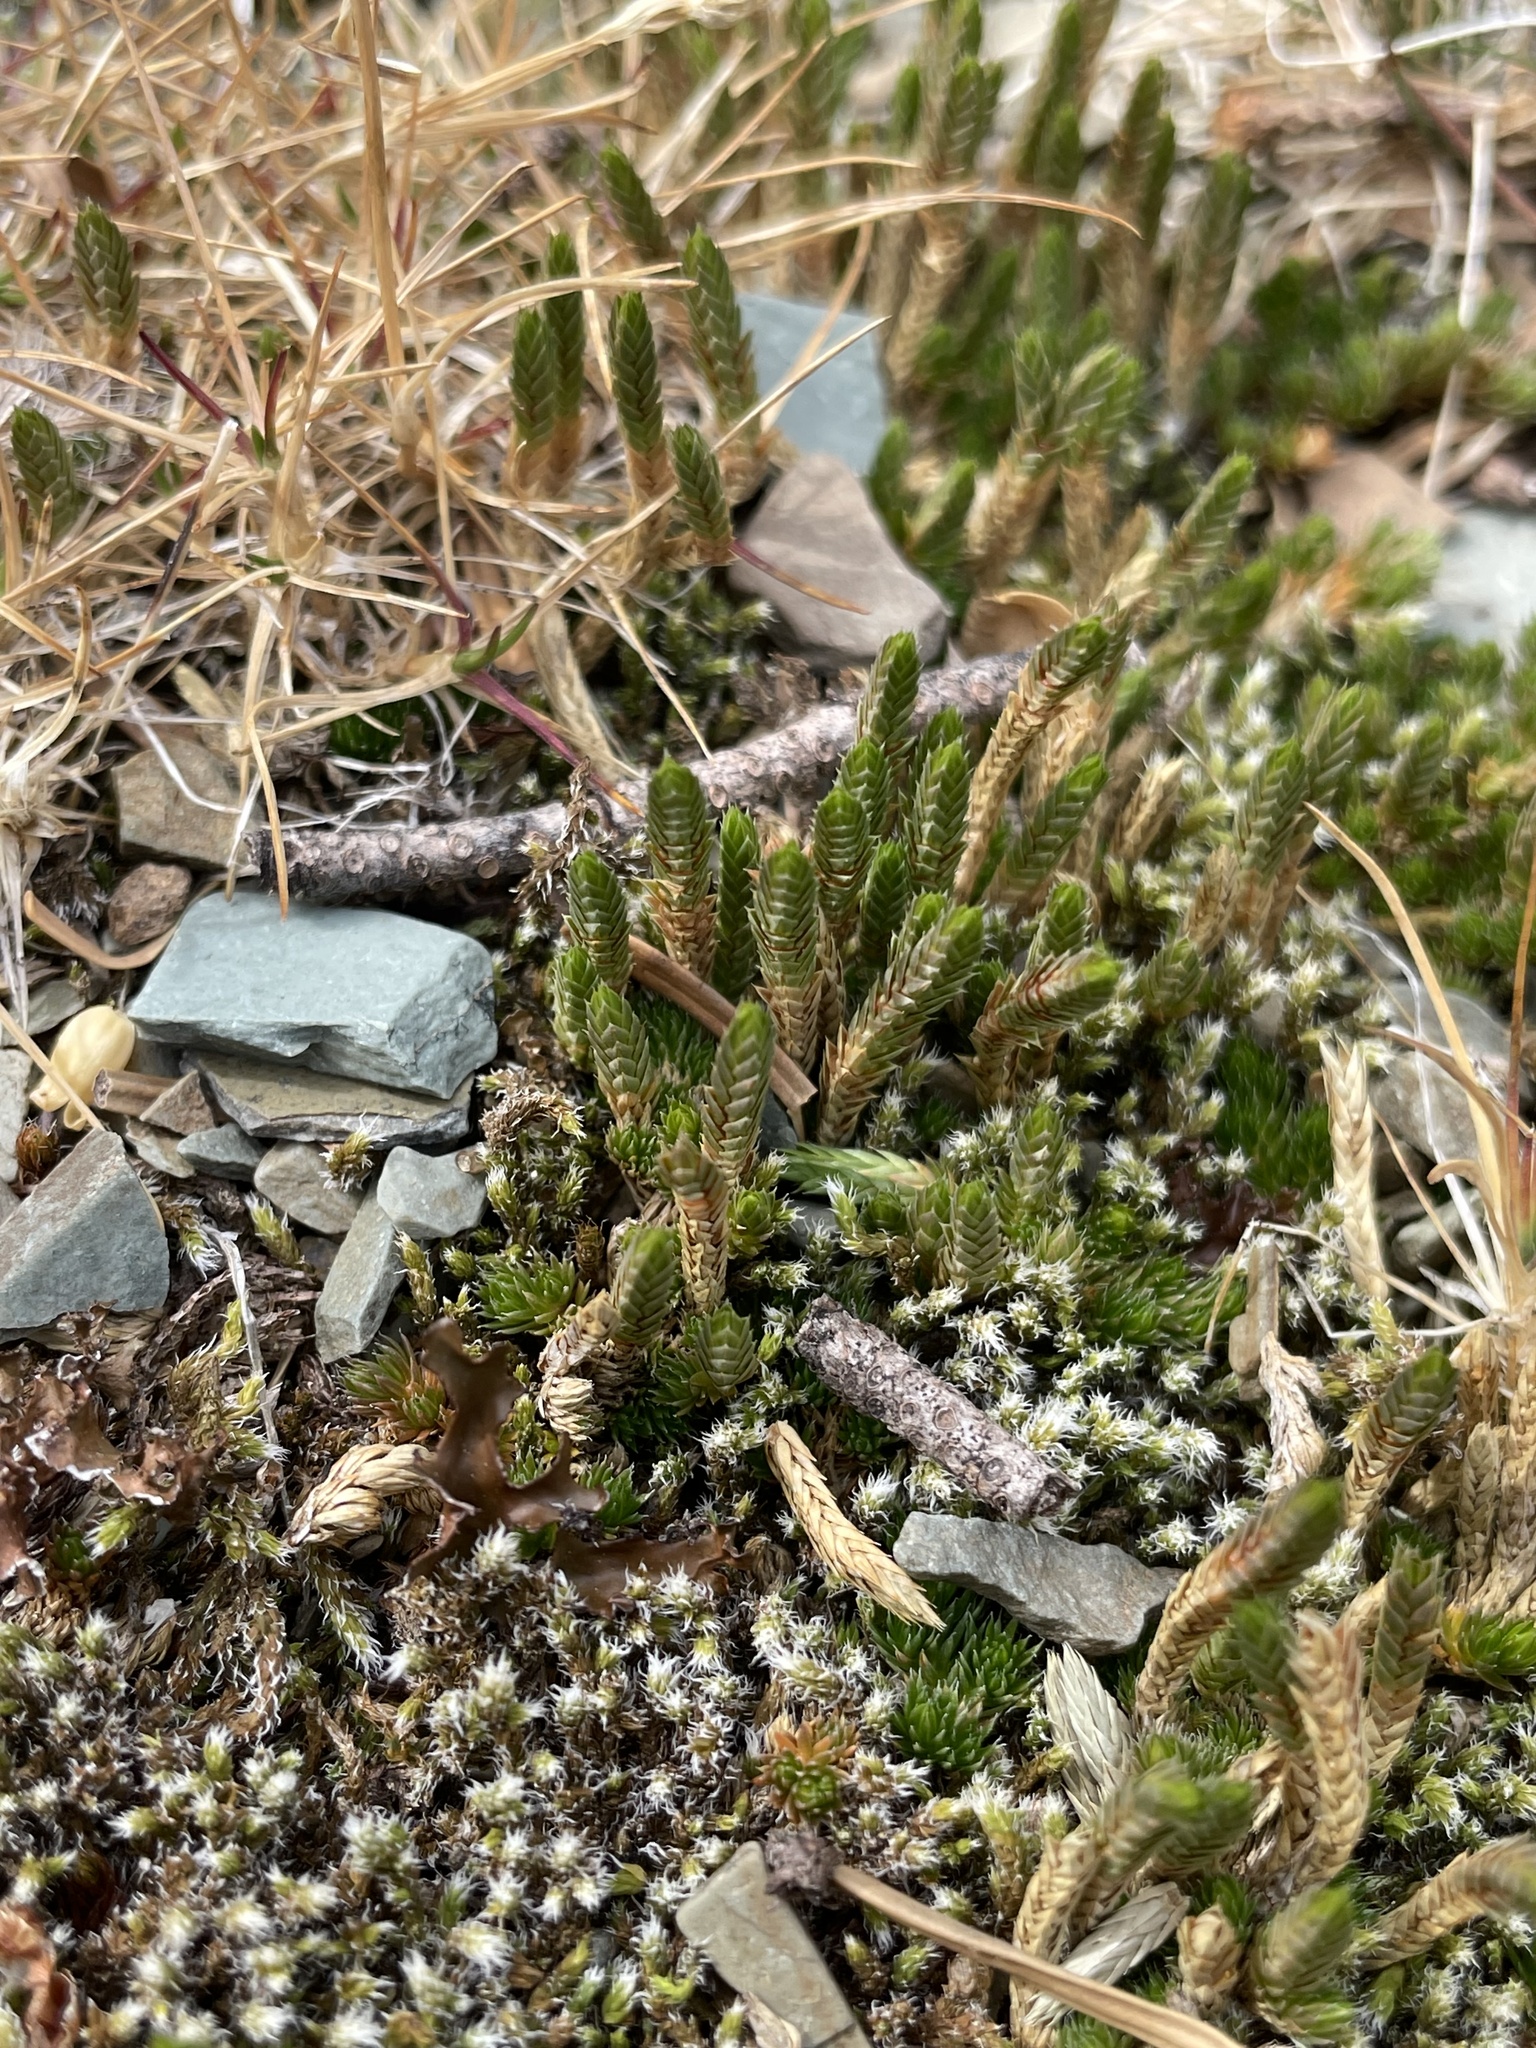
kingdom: Plantae
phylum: Tracheophyta
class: Lycopodiopsida
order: Selaginellales
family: Selaginellaceae
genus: Selaginella
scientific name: Selaginella densa
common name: Mountain spike-moss
